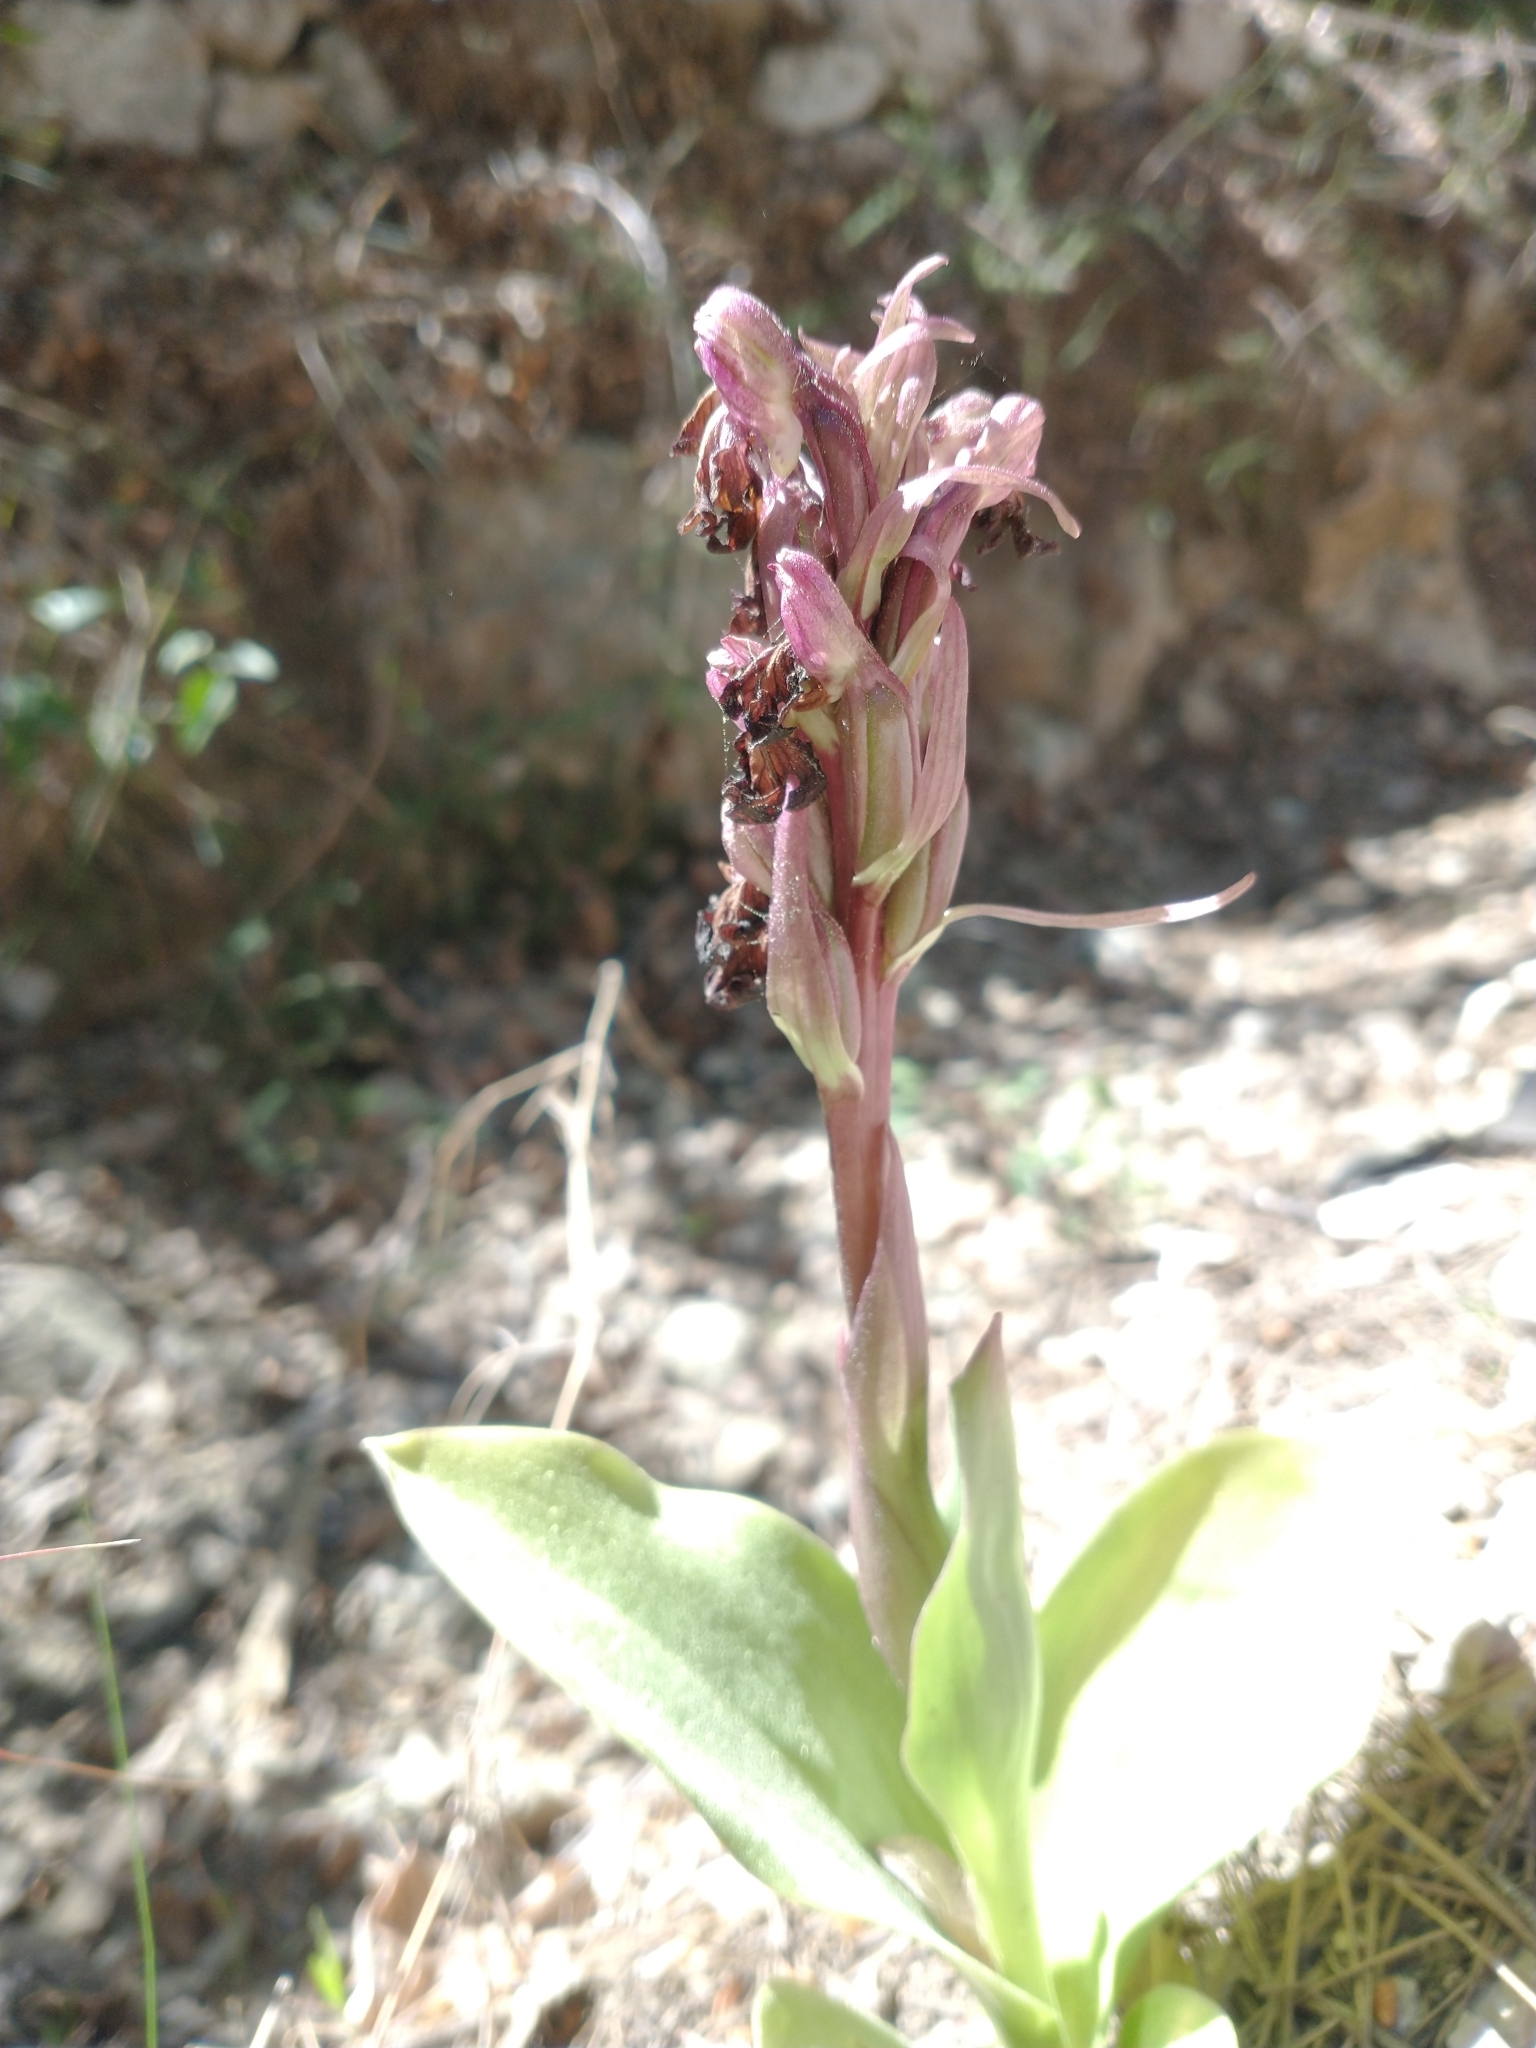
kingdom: Plantae
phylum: Tracheophyta
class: Liliopsida
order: Asparagales
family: Orchidaceae
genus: Himantoglossum
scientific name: Himantoglossum robertianum
